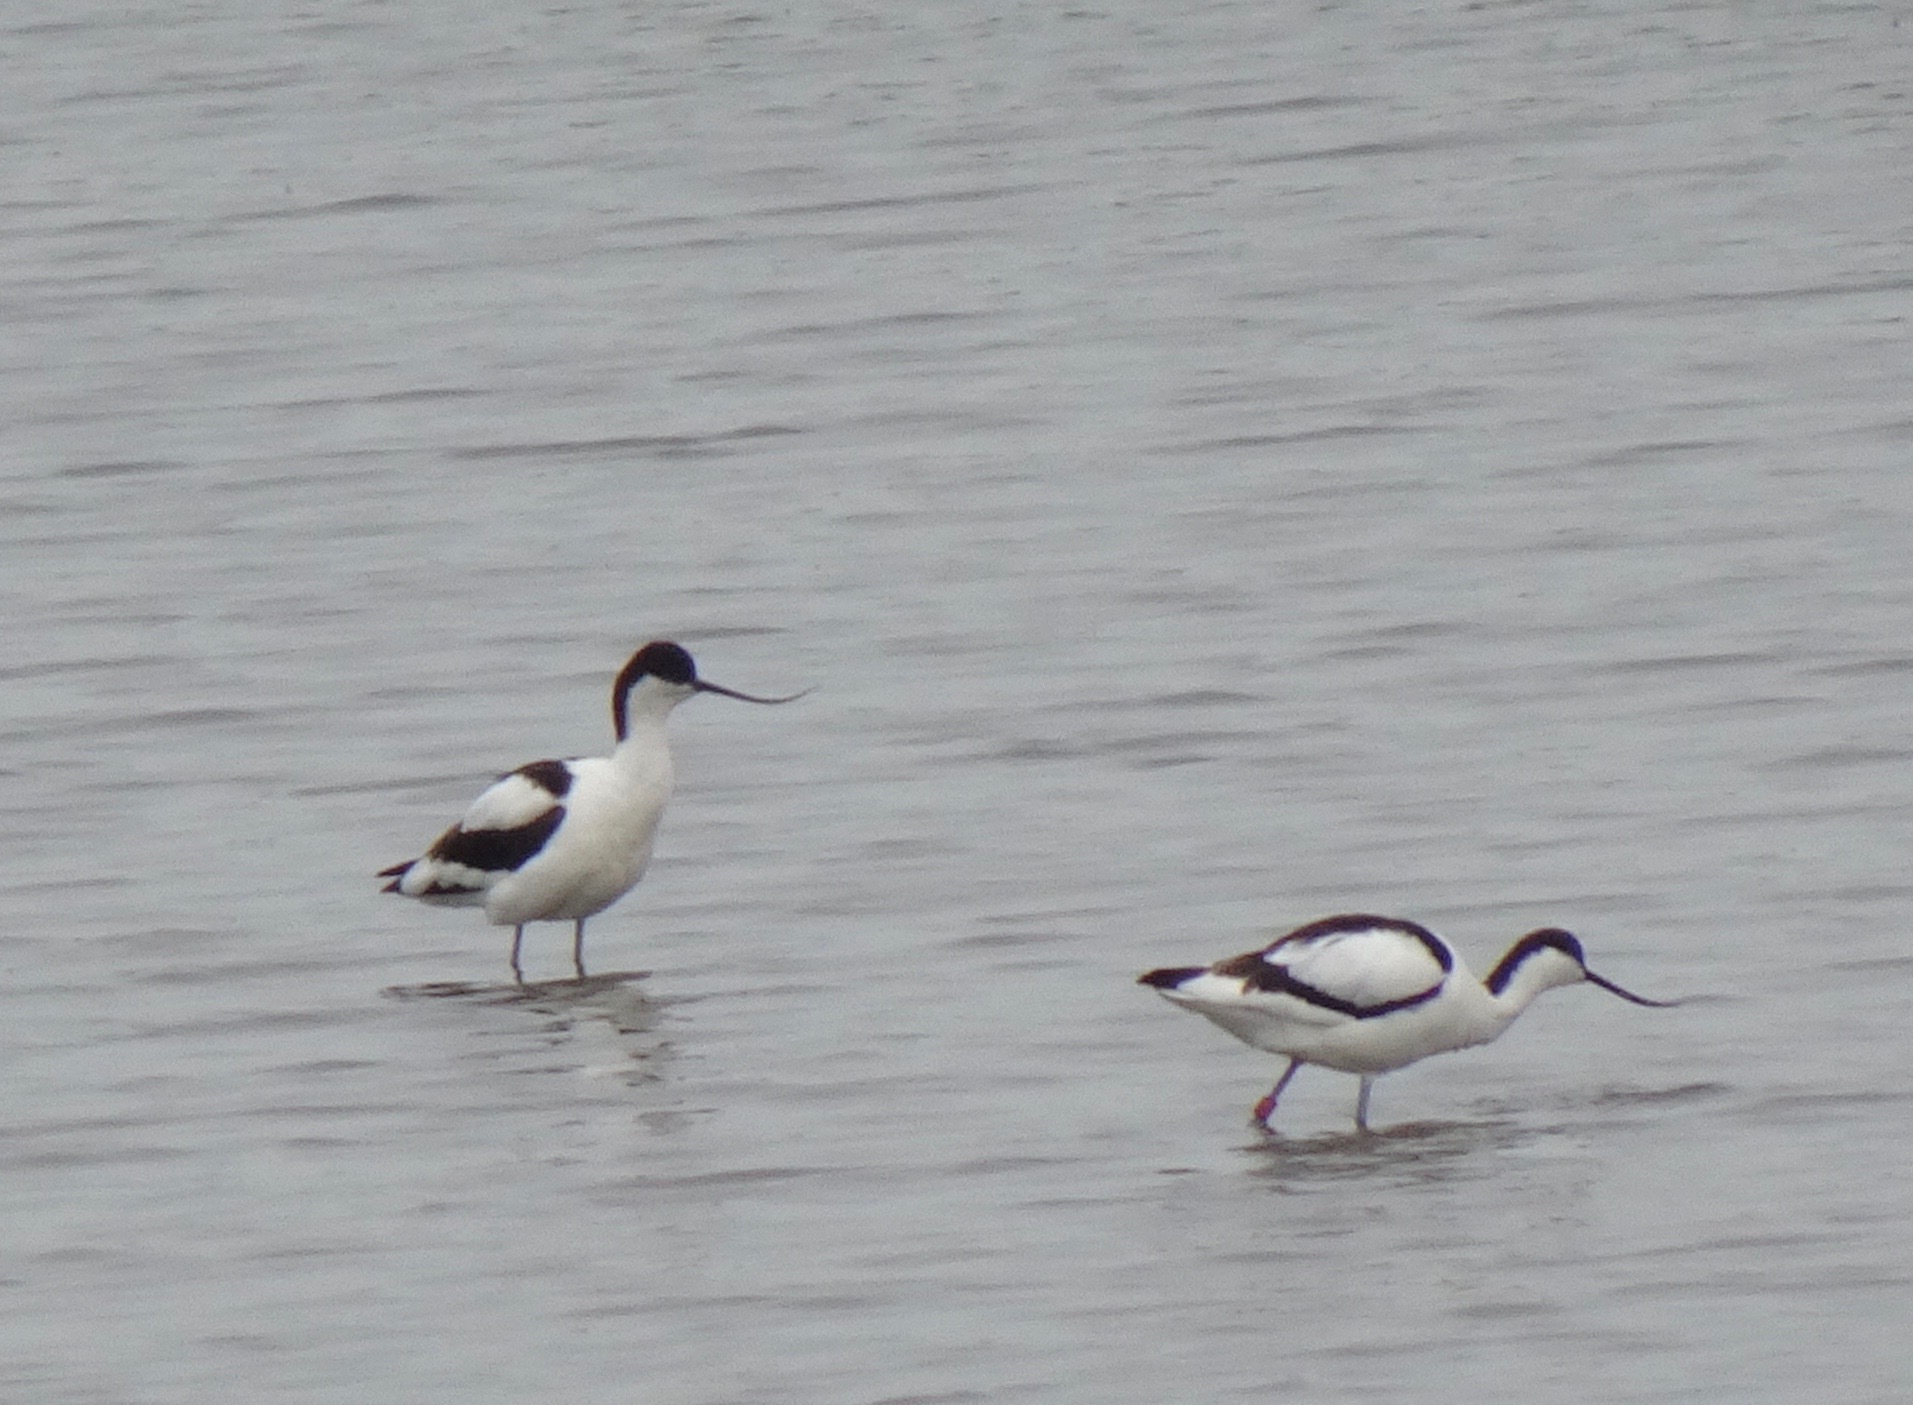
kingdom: Animalia
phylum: Chordata
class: Aves
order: Charadriiformes
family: Recurvirostridae
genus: Recurvirostra
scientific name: Recurvirostra avosetta
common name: Pied avocet
